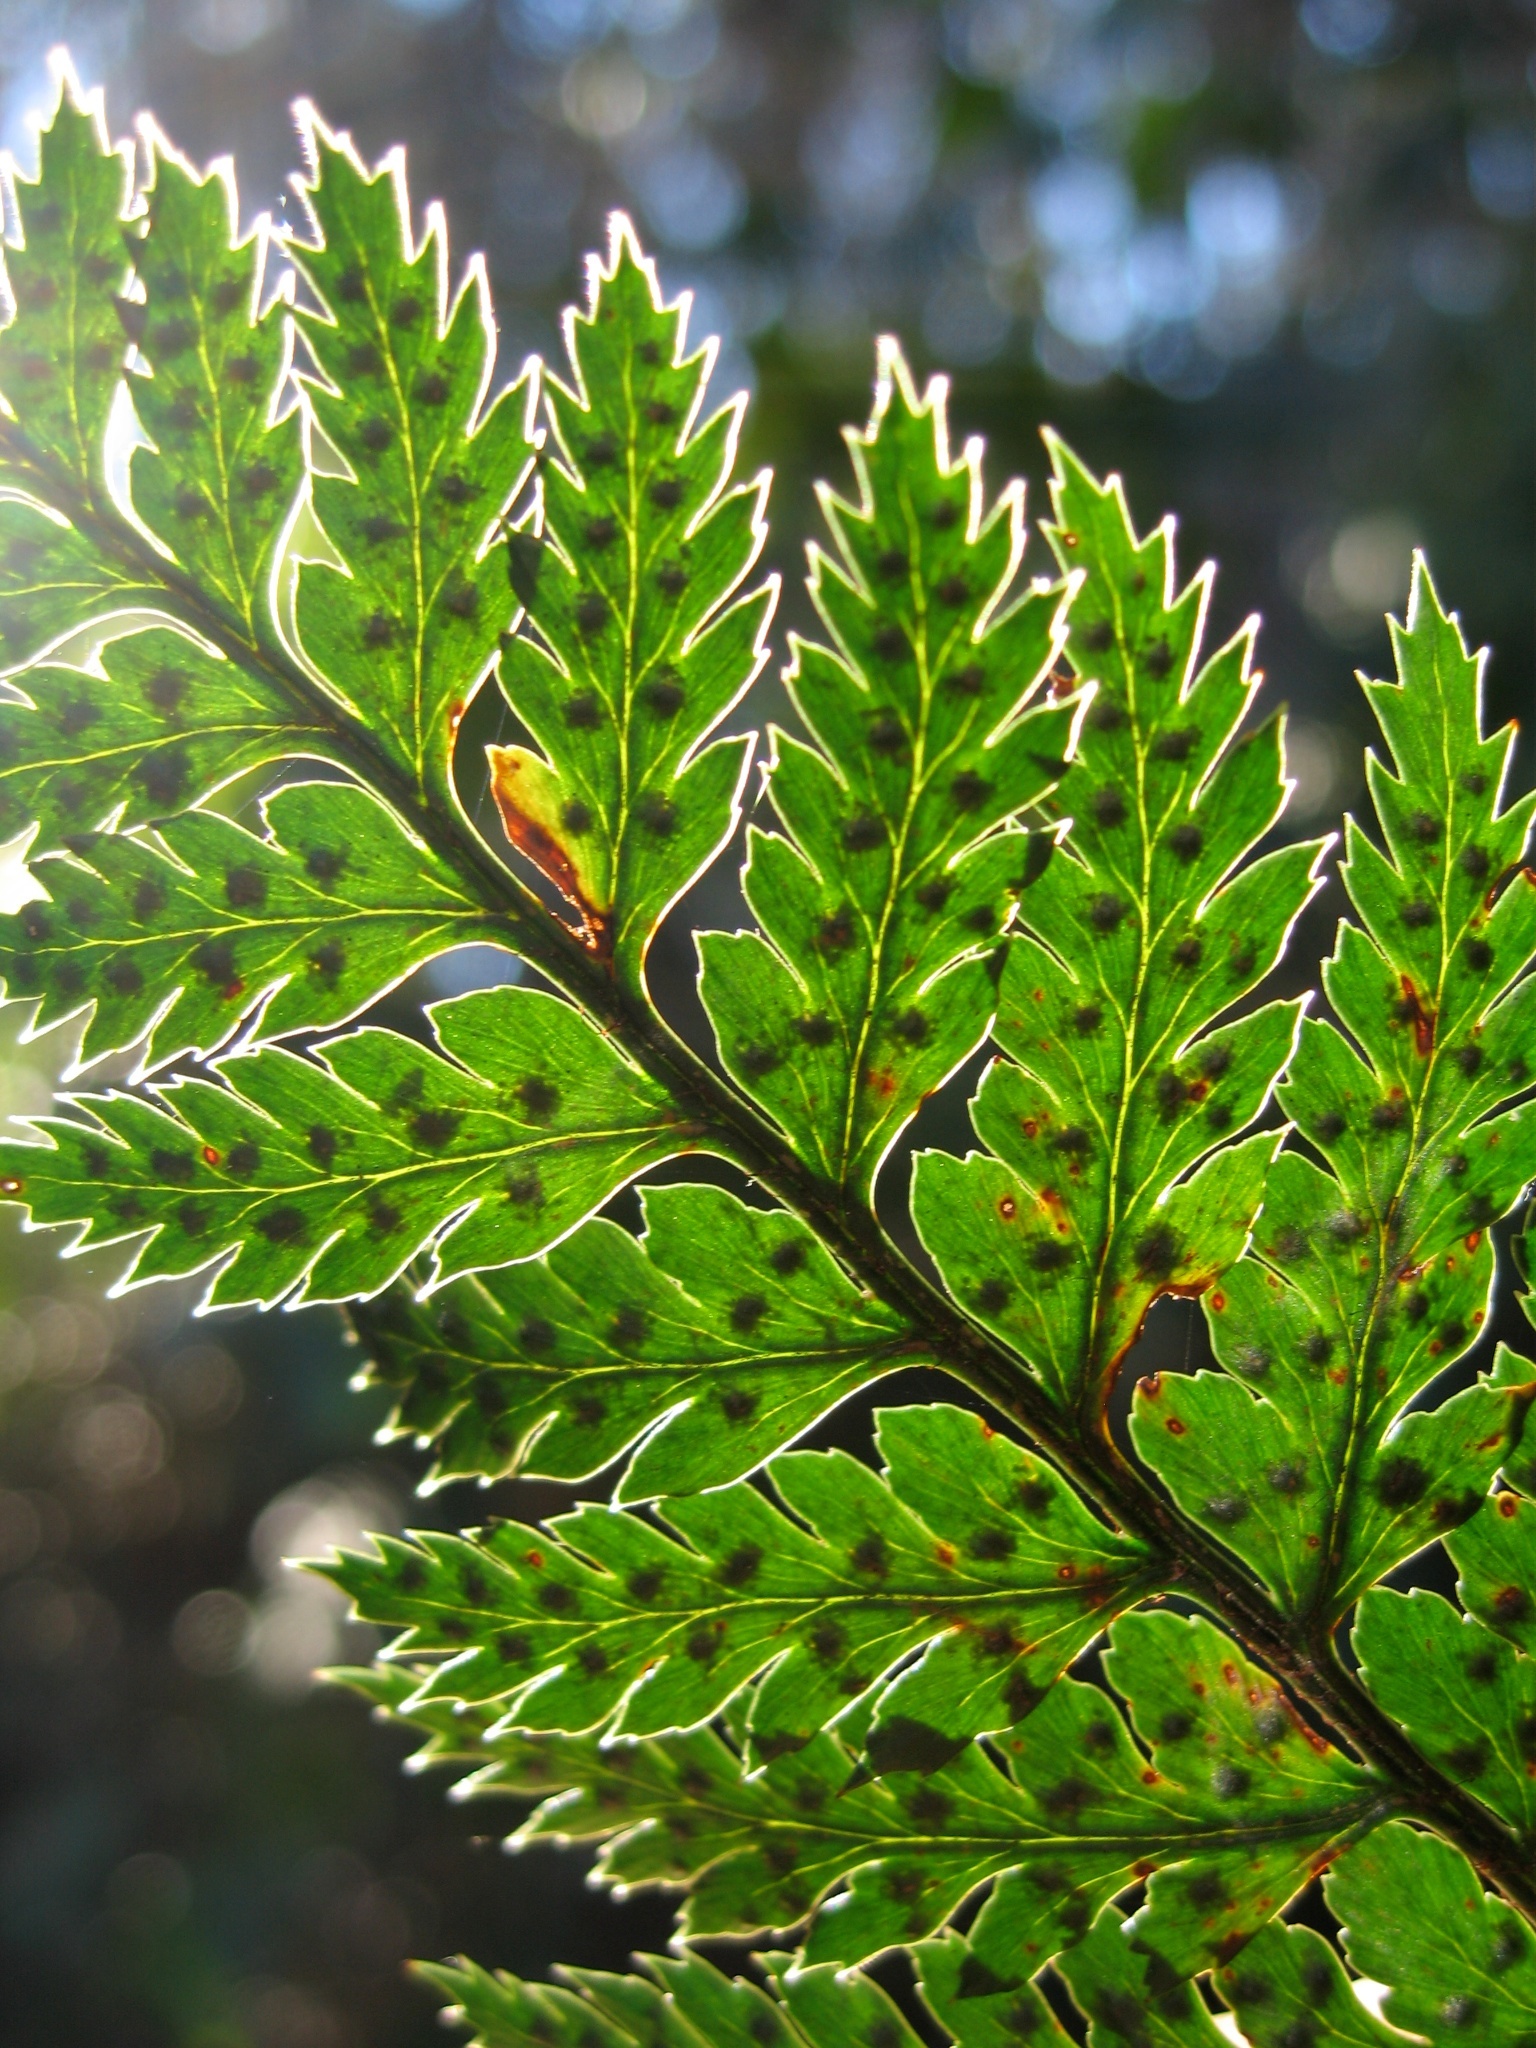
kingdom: Plantae
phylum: Tracheophyta
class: Polypodiopsida
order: Polypodiales
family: Dryopteridaceae
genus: Polystichum
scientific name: Polystichum neozelandicum
